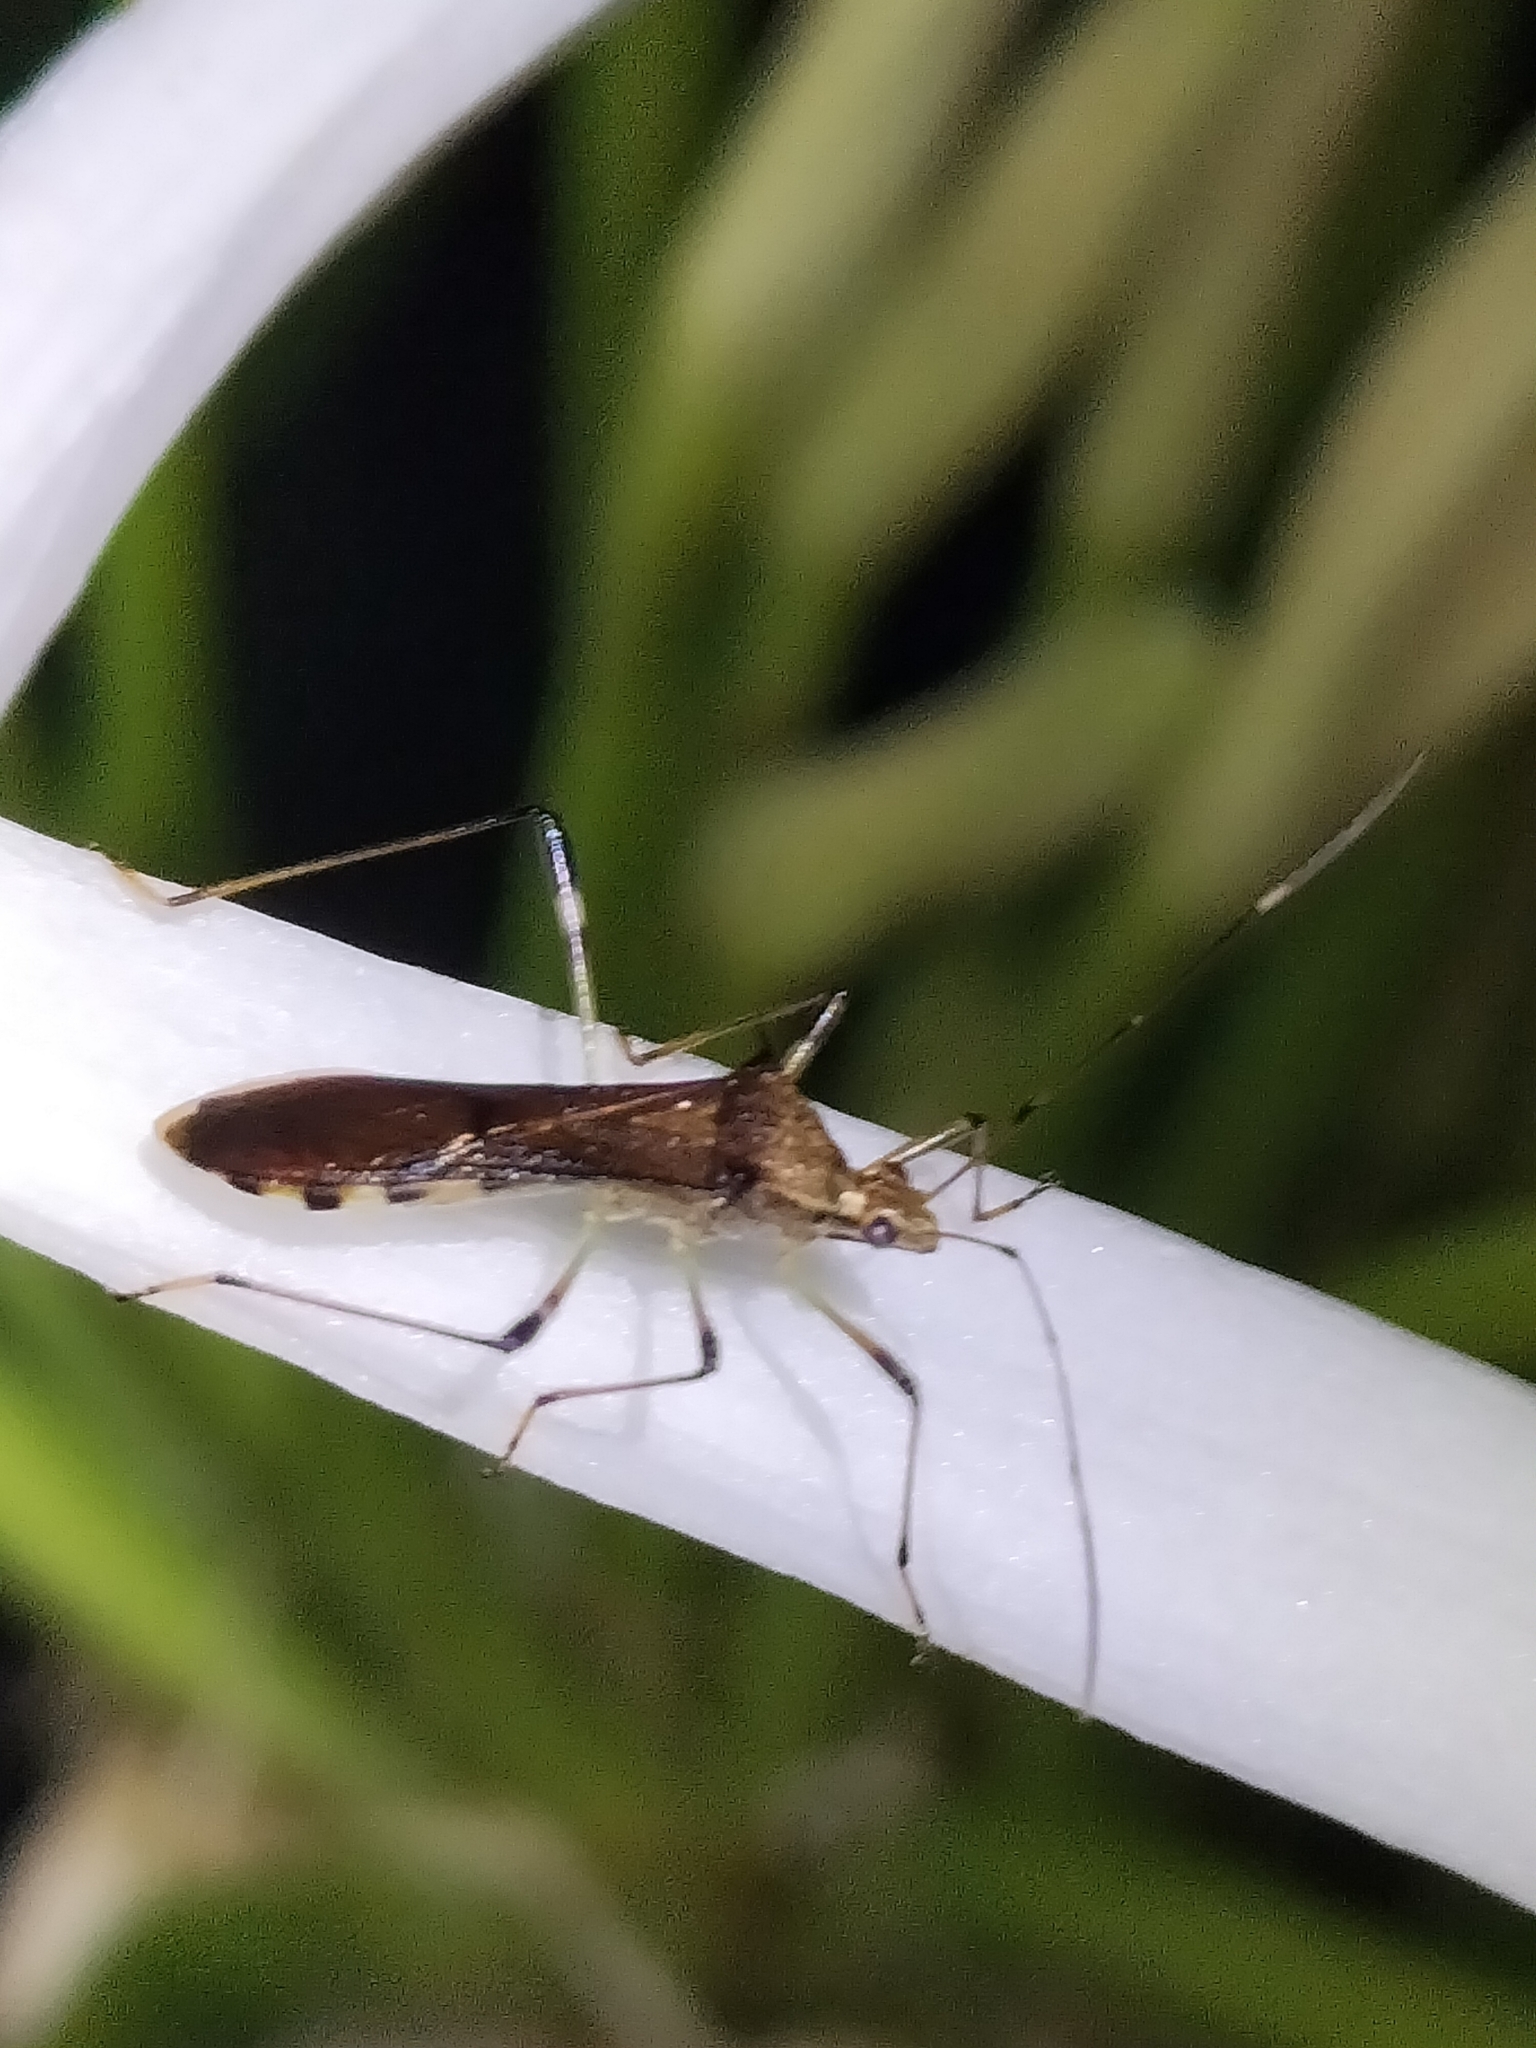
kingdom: Animalia
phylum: Arthropoda
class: Insecta
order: Hemiptera
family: Alydidae
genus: Noliphus
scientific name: Noliphus annulipes
